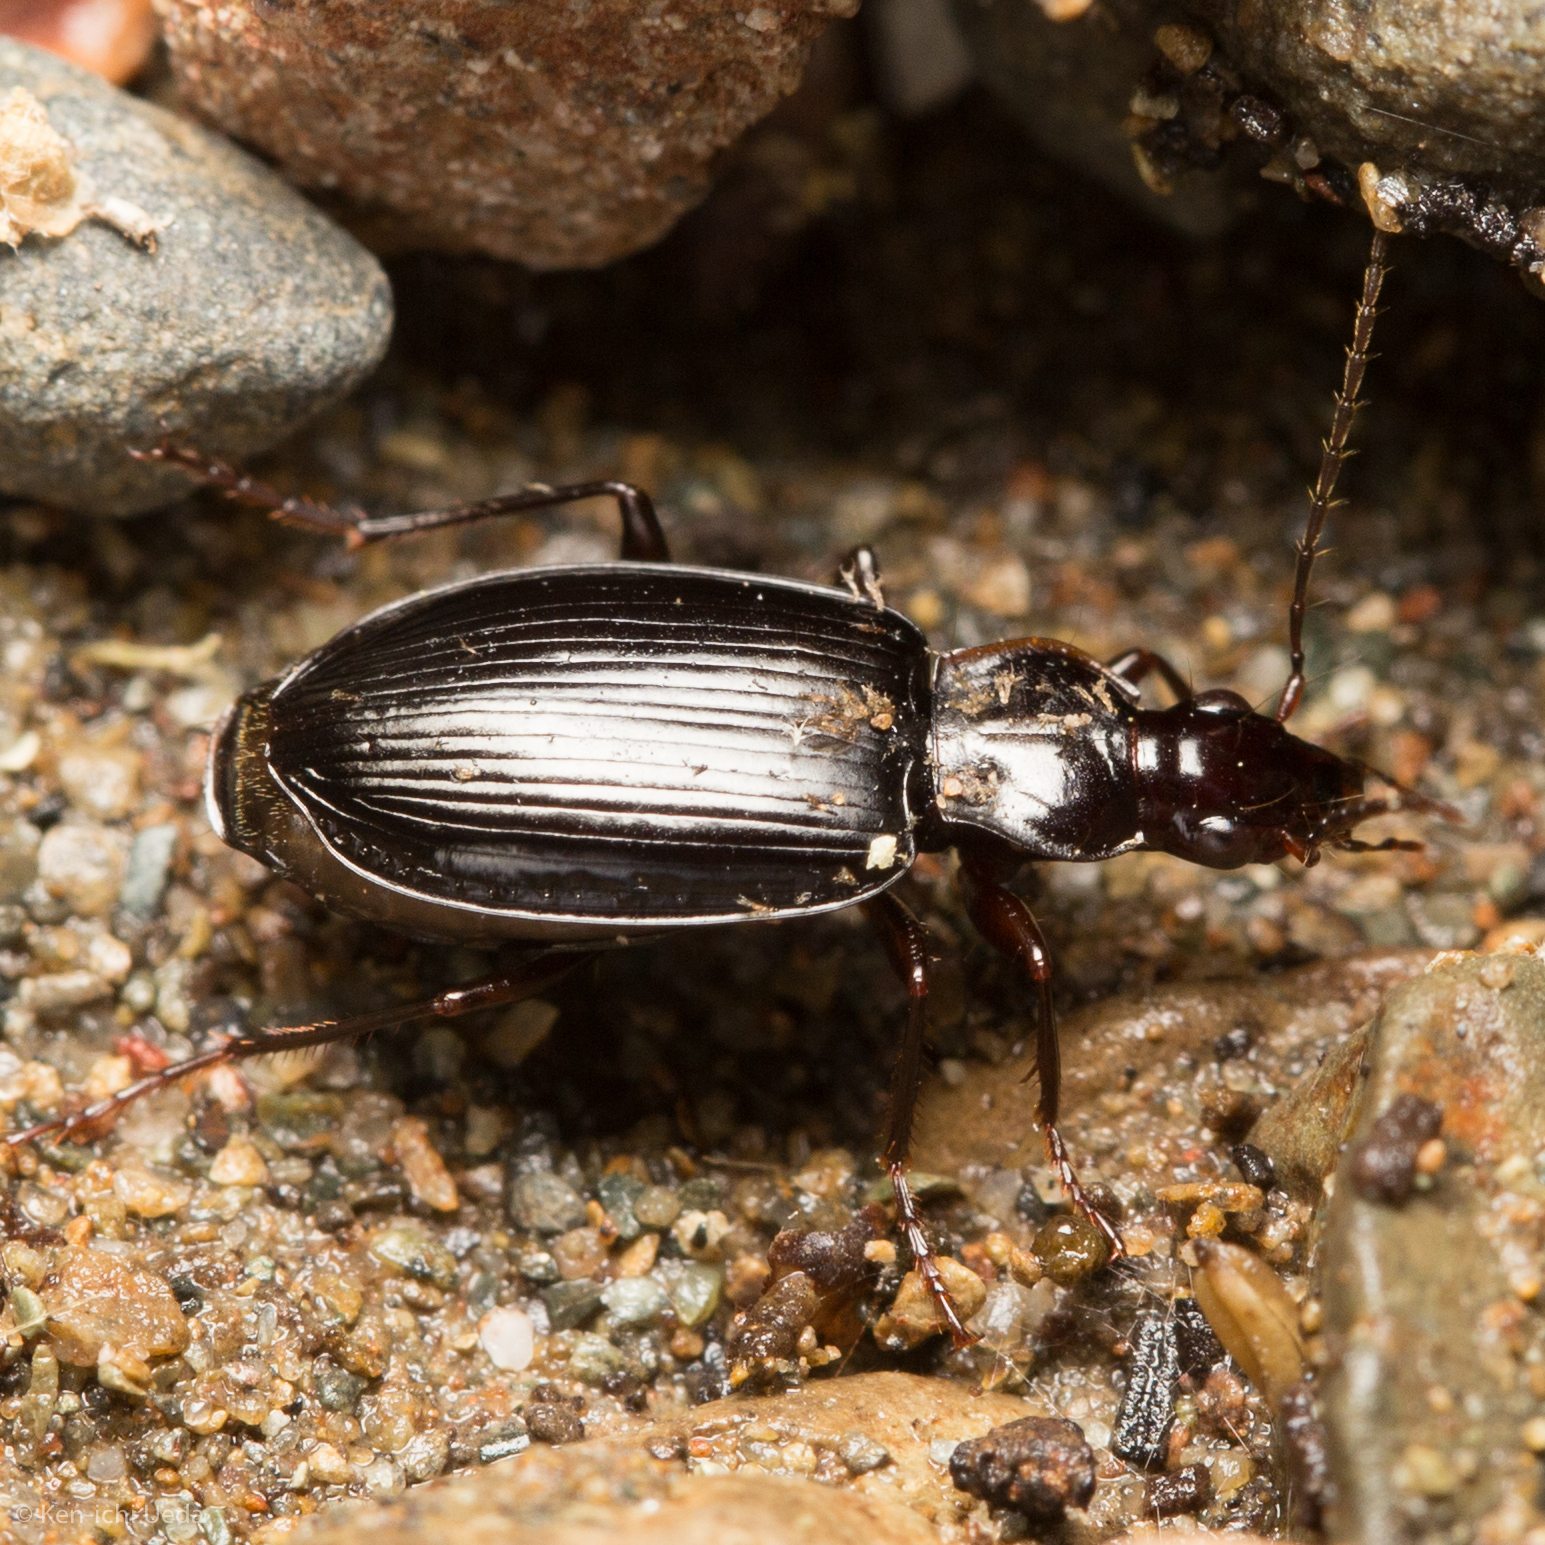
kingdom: Animalia
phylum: Arthropoda
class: Insecta
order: Coleoptera
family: Carabidae
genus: Platynus
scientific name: Platynus brunneomarginatus
